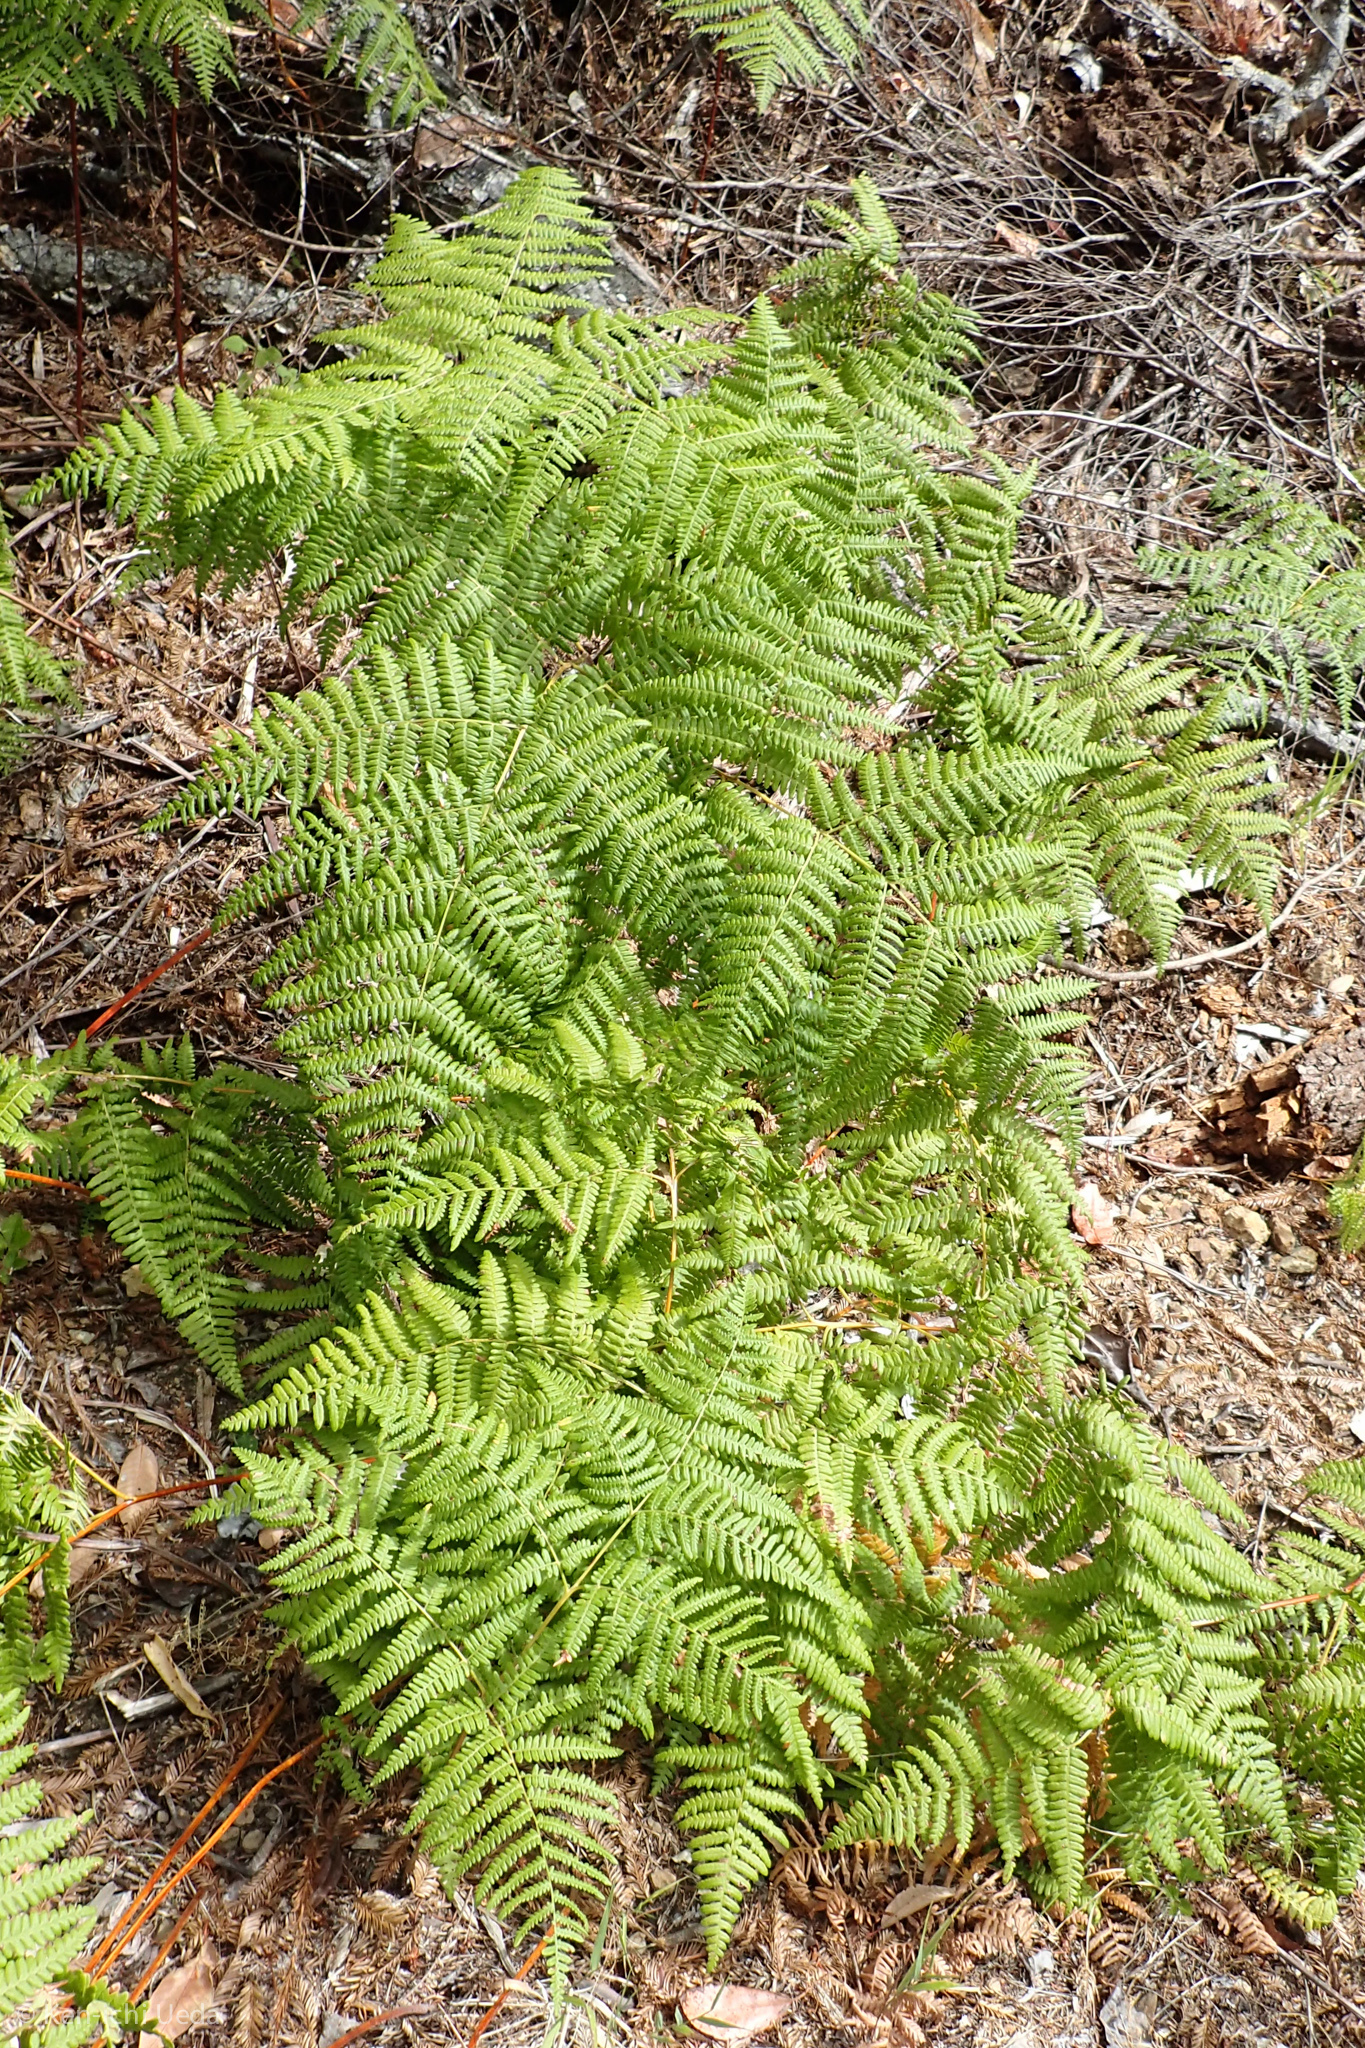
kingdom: Plantae
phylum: Tracheophyta
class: Polypodiopsida
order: Polypodiales
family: Dennstaedtiaceae
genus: Pteridium
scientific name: Pteridium aquilinum
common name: Bracken
